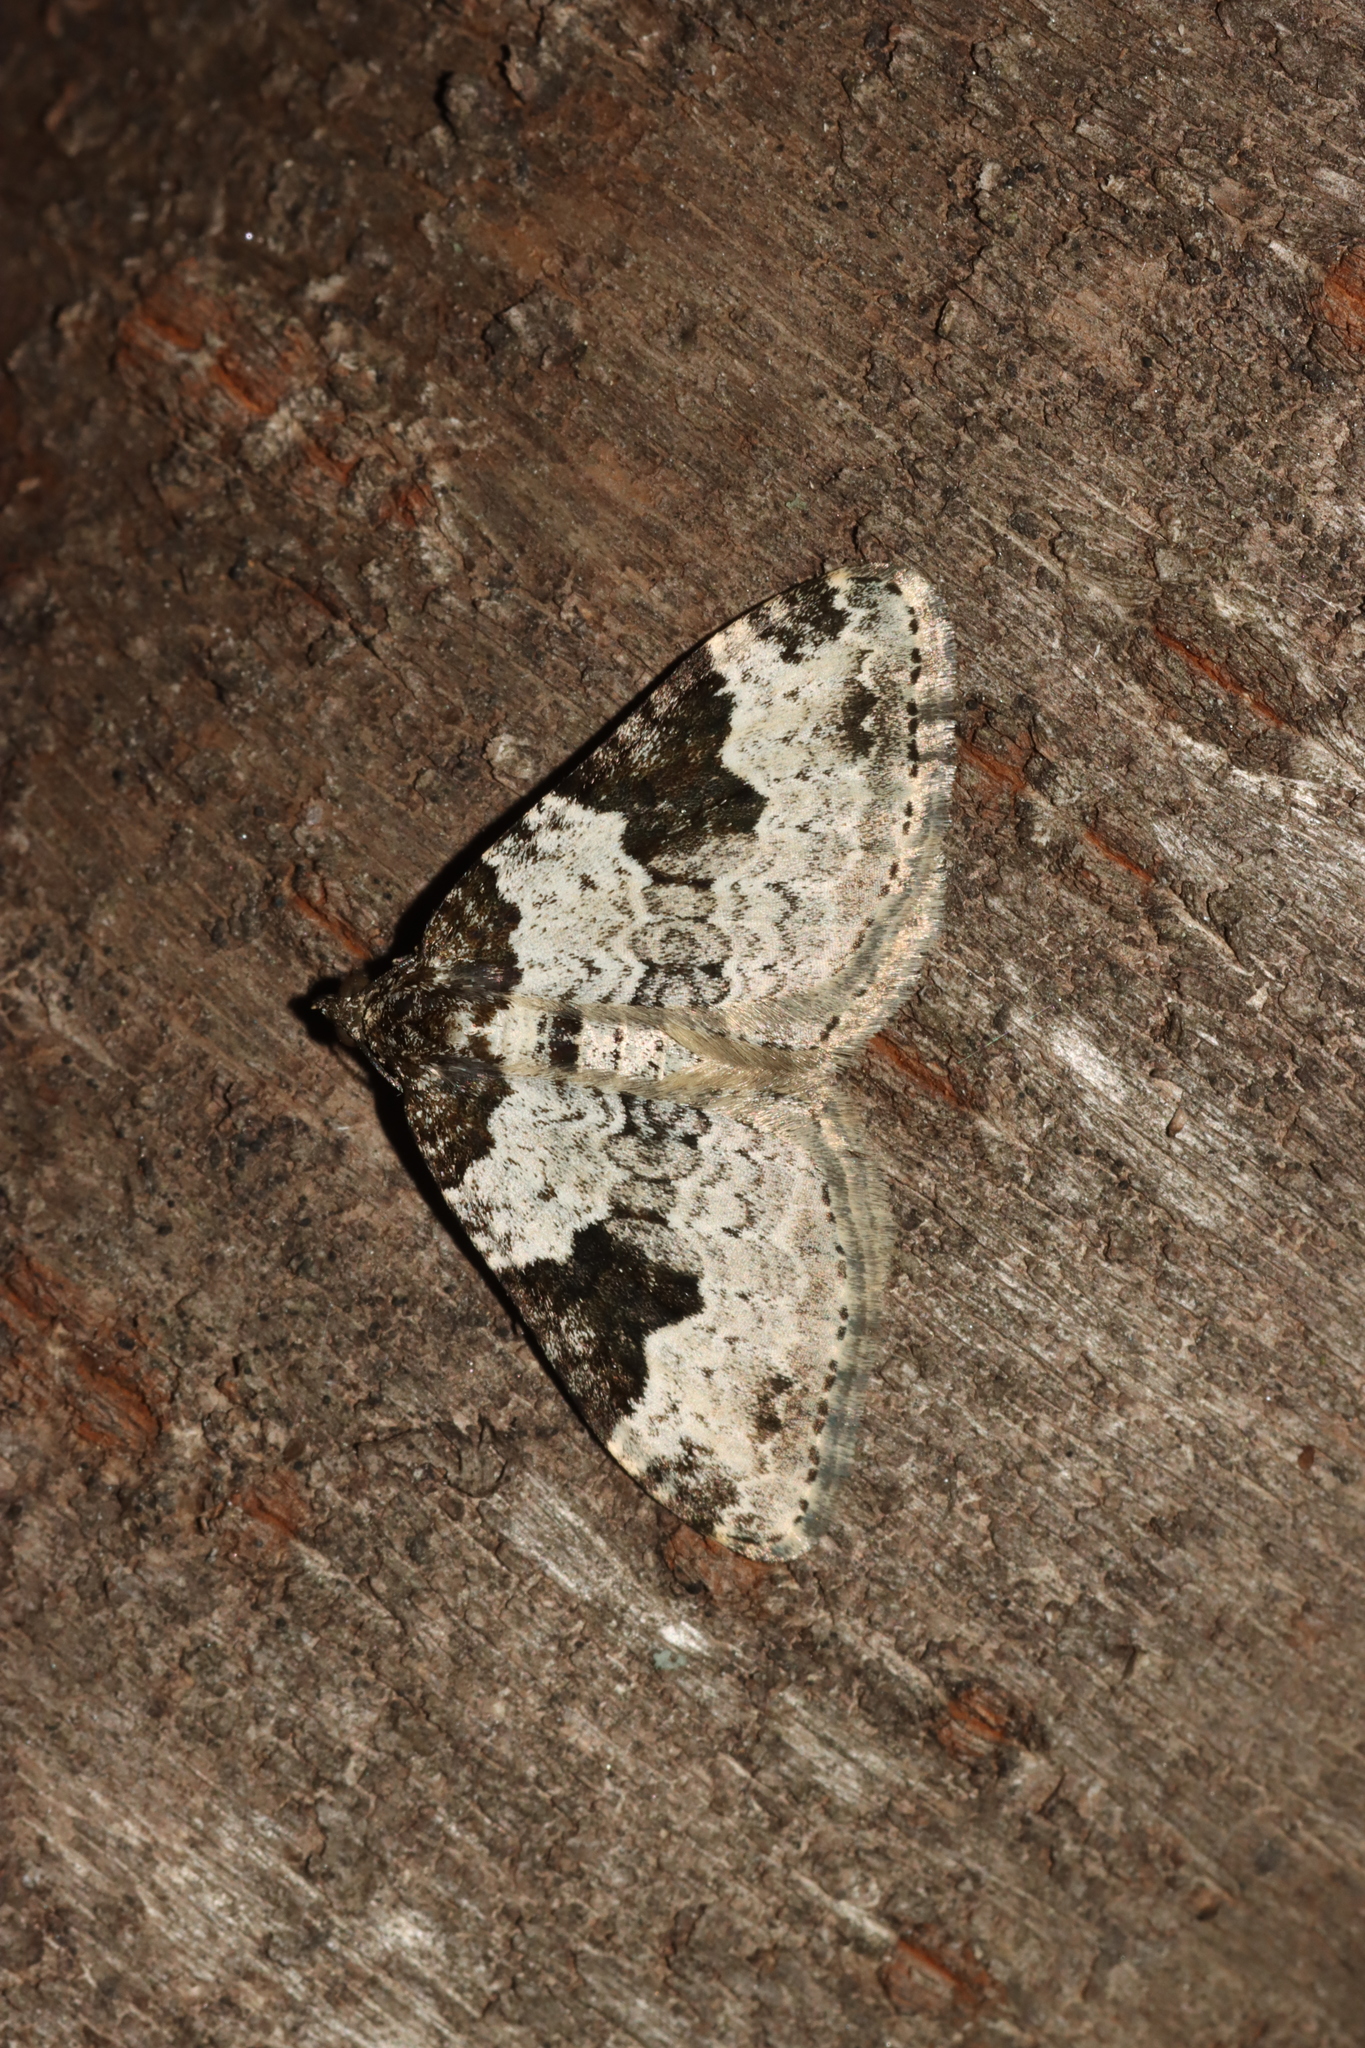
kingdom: Animalia
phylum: Arthropoda
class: Insecta
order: Lepidoptera
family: Geometridae
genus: Xanthorhoe
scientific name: Xanthorhoe fluctuata
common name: Garden carpet
